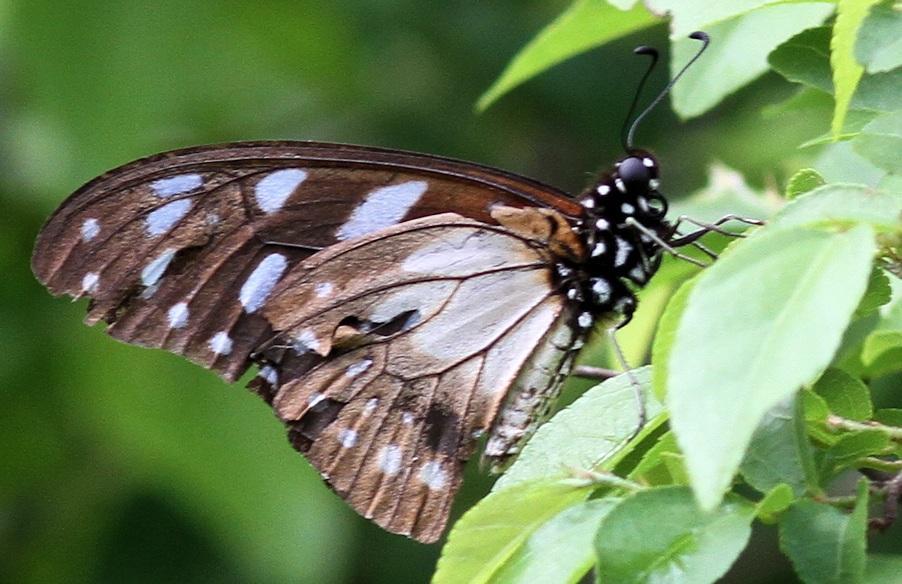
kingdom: Animalia
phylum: Arthropoda
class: Insecta
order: Lepidoptera
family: Papilionidae
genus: Graphium
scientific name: Graphium leonidas
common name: Common graphium
